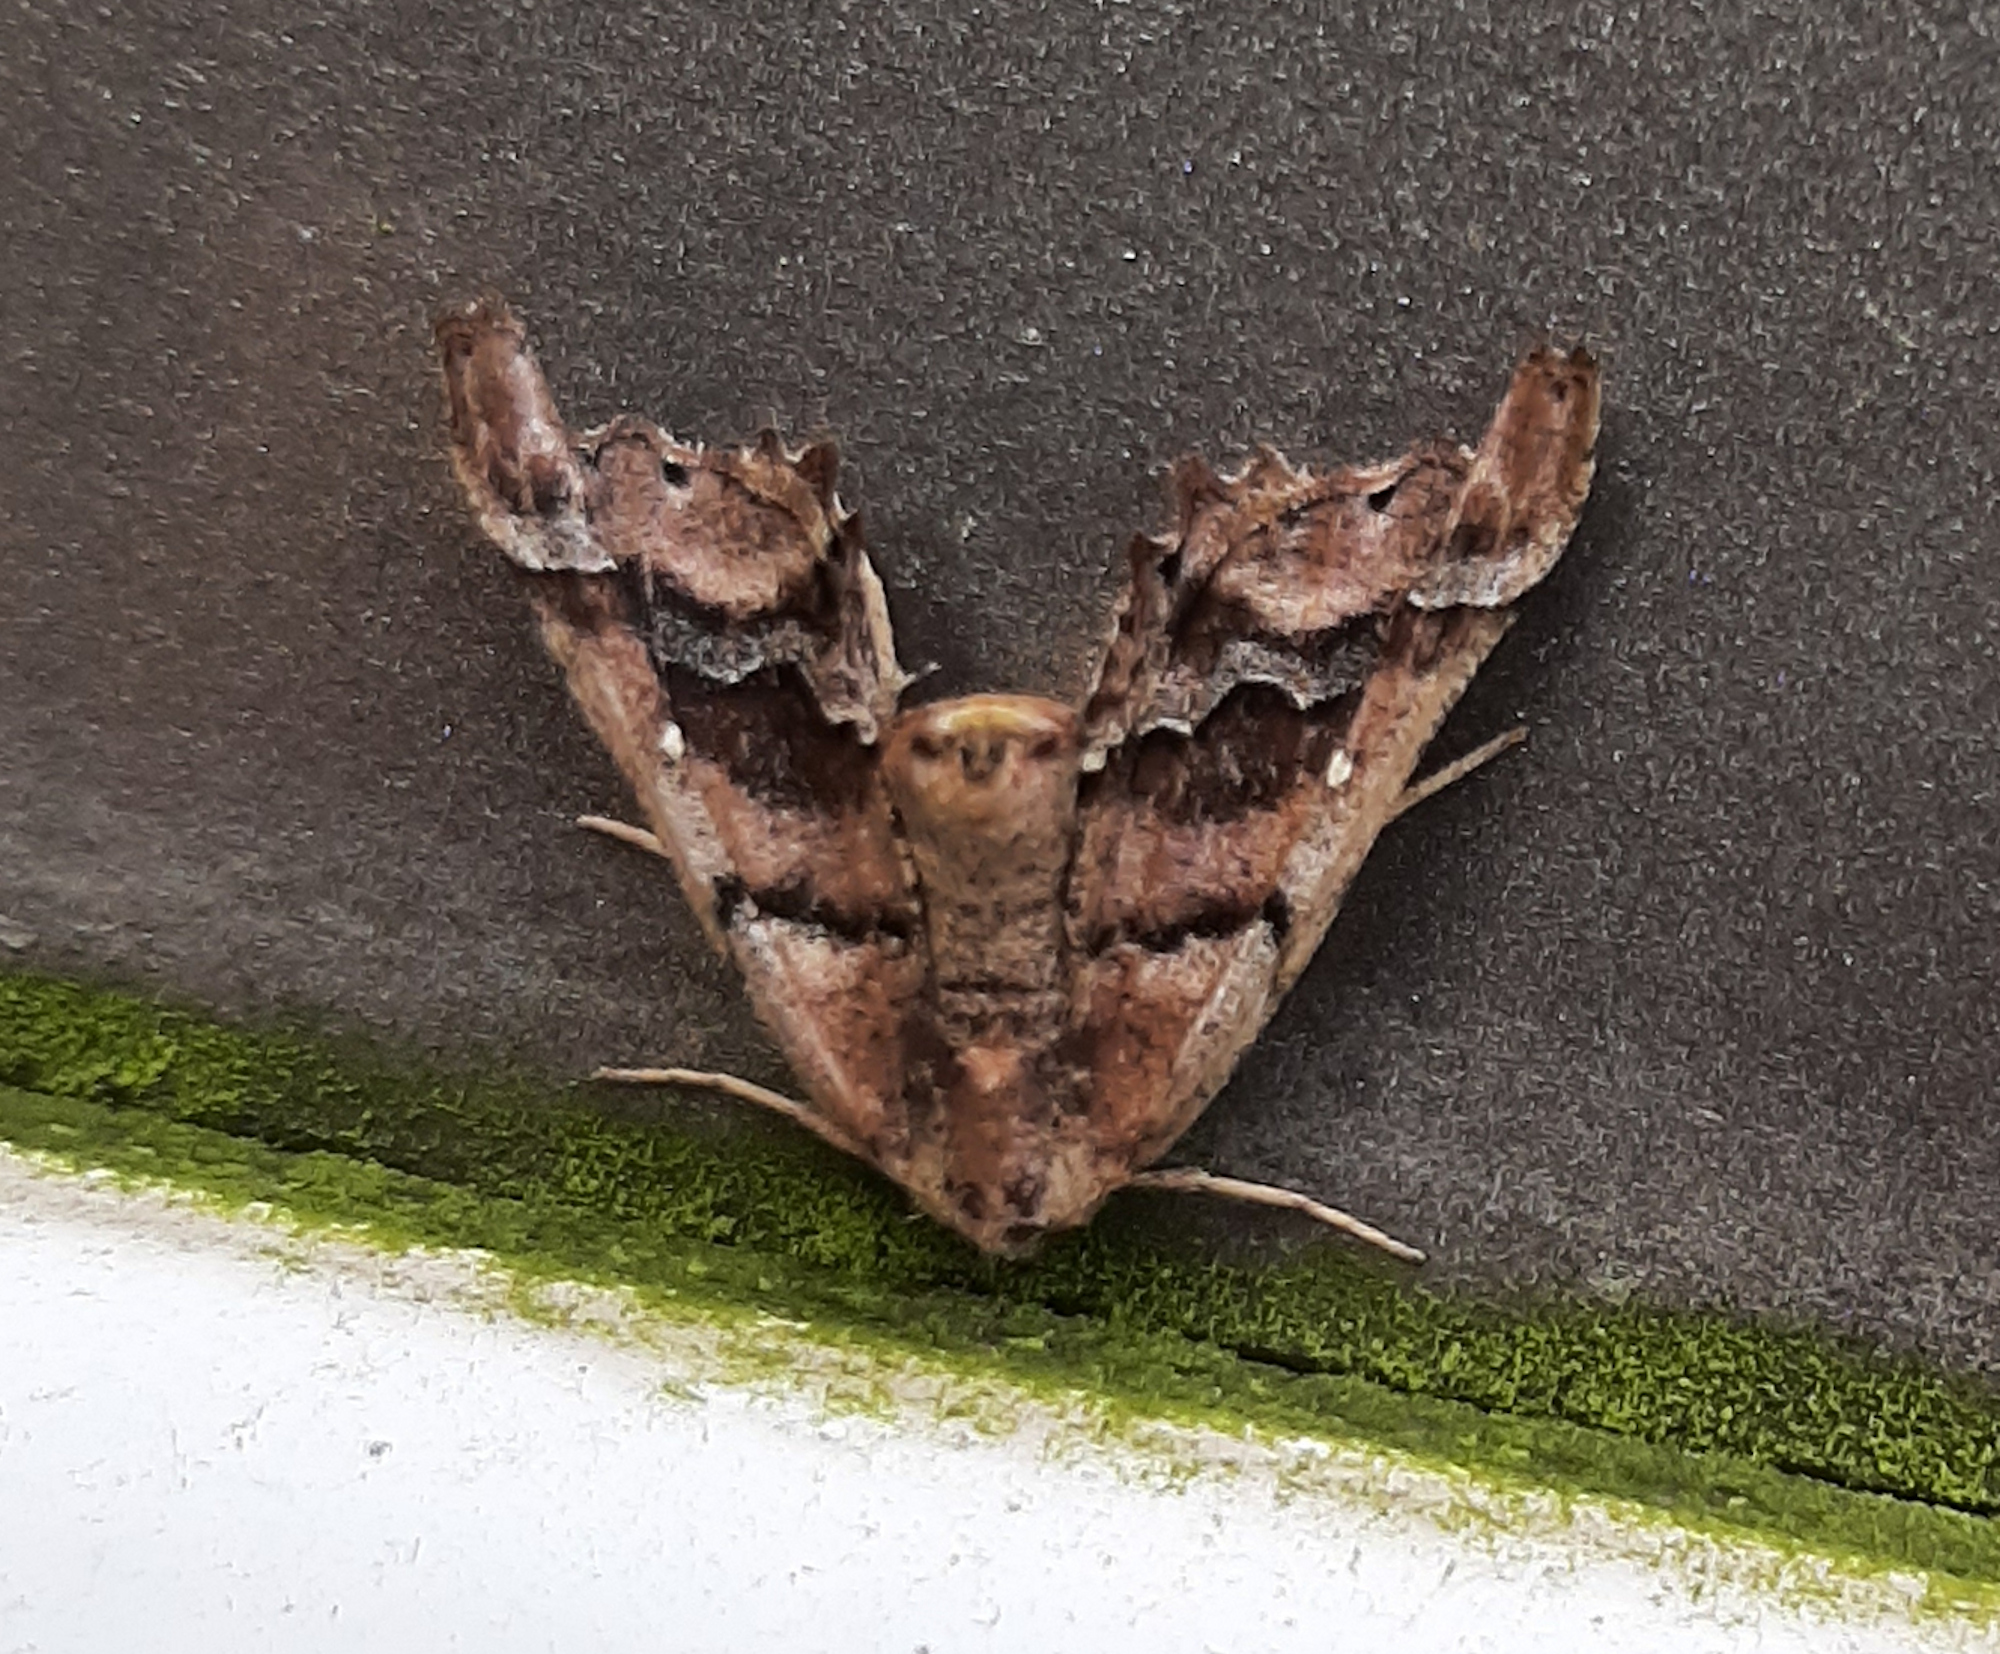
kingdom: Animalia
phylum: Arthropoda
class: Insecta
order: Lepidoptera
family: Geometridae
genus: Pero
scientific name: Pero meskaria
